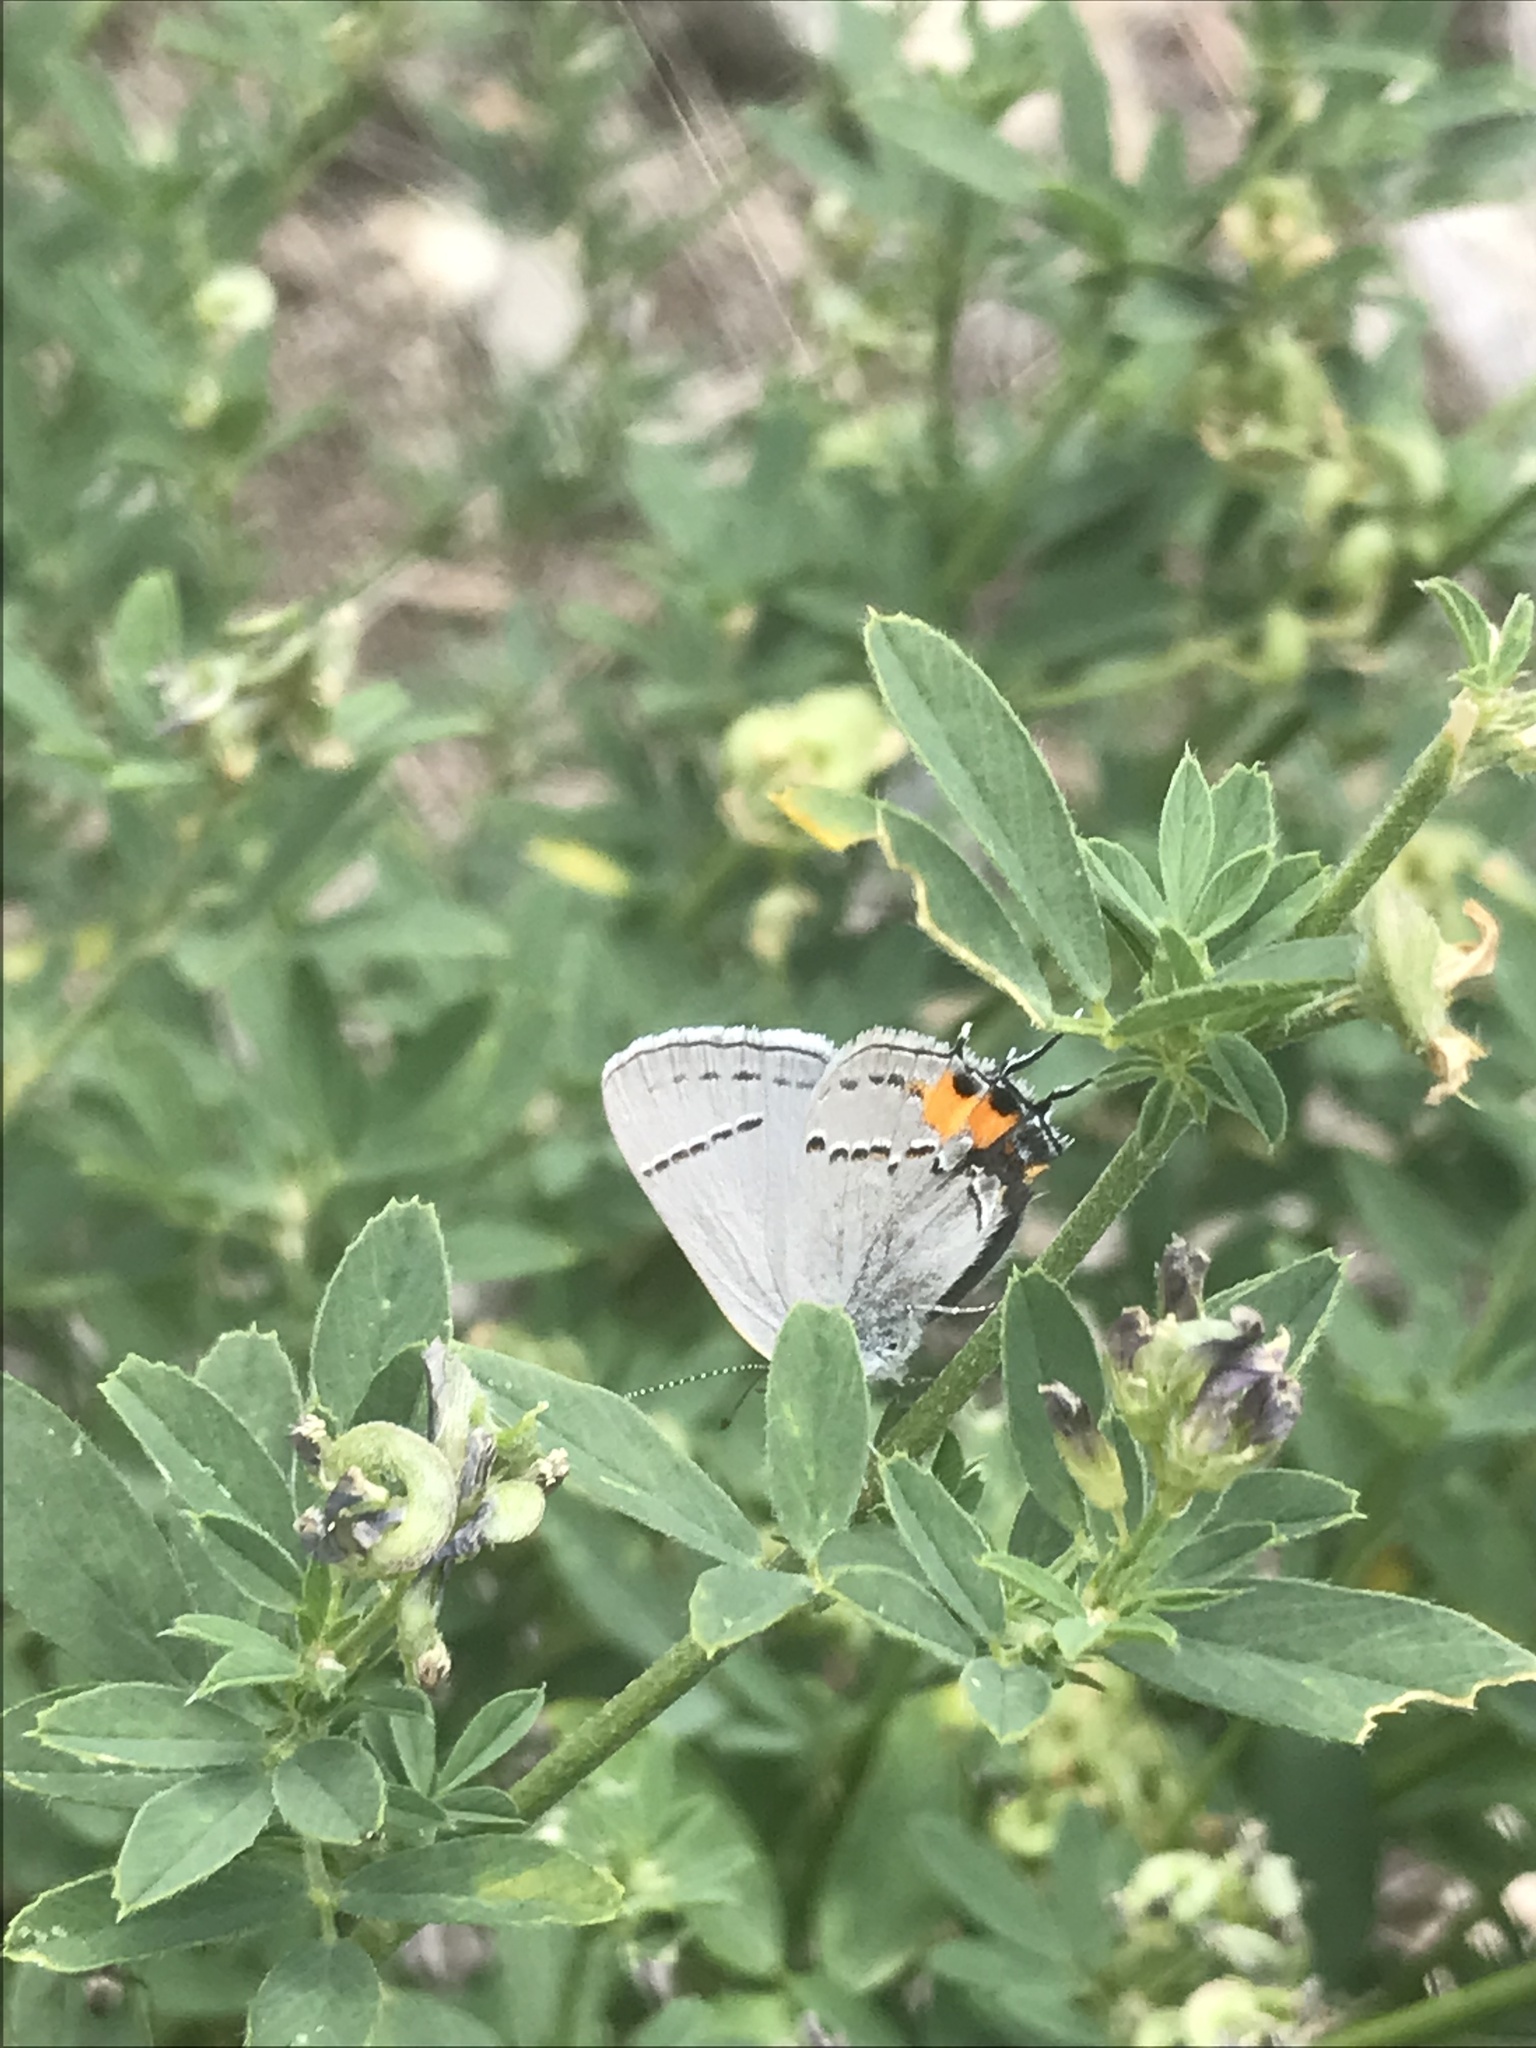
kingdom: Animalia
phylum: Arthropoda
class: Insecta
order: Lepidoptera
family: Lycaenidae
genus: Strymon
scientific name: Strymon melinus
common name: Gray hairstreak
